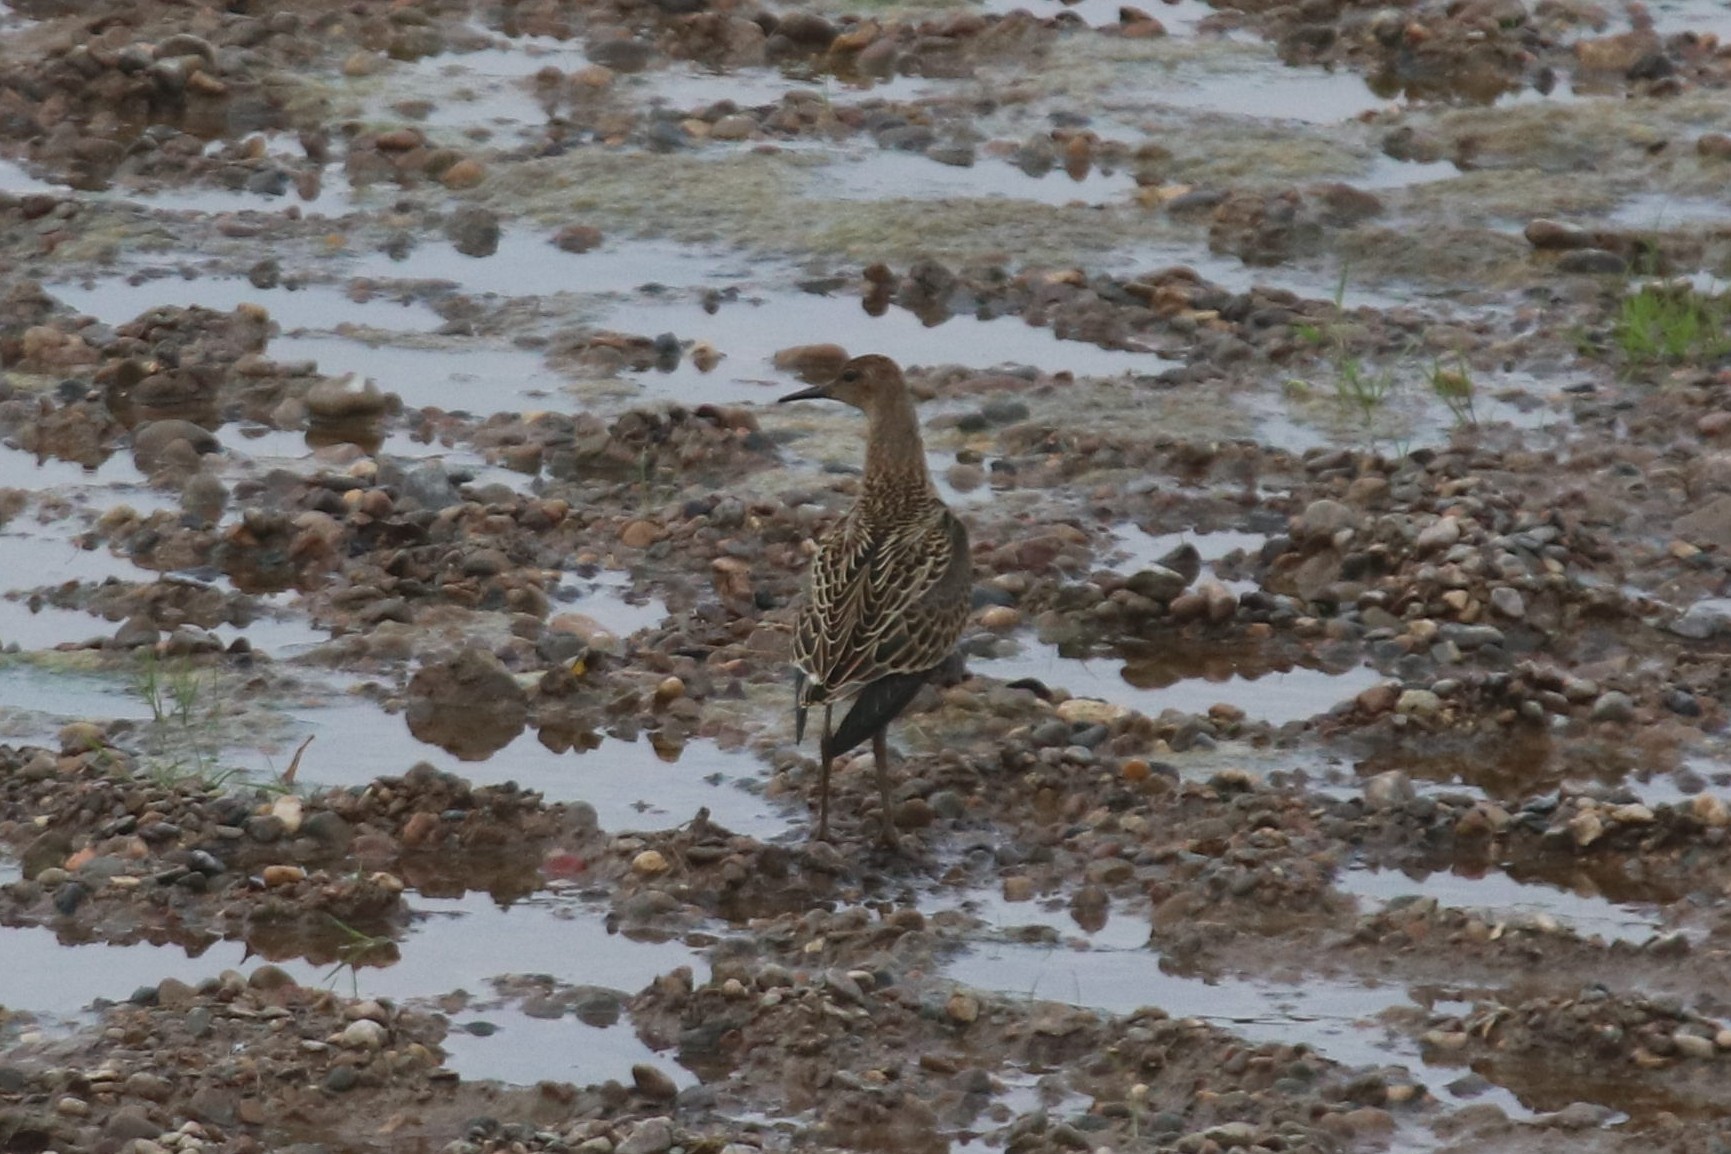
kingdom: Animalia
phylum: Chordata
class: Aves
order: Charadriiformes
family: Scolopacidae
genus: Calidris
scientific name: Calidris pugnax
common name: Ruff
